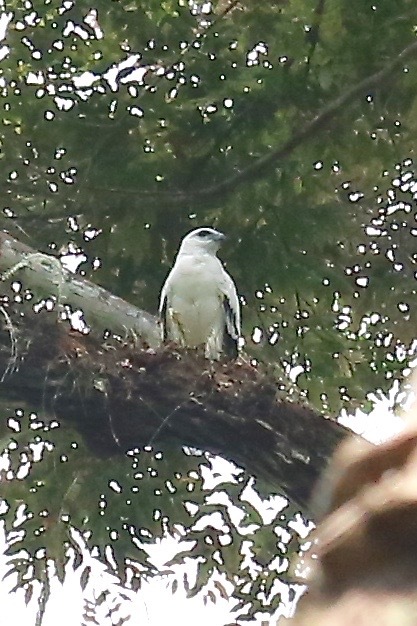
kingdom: Animalia
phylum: Chordata
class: Aves
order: Accipitriformes
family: Accipitridae
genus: Leucopternis
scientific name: Leucopternis albicollis
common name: White hawk
